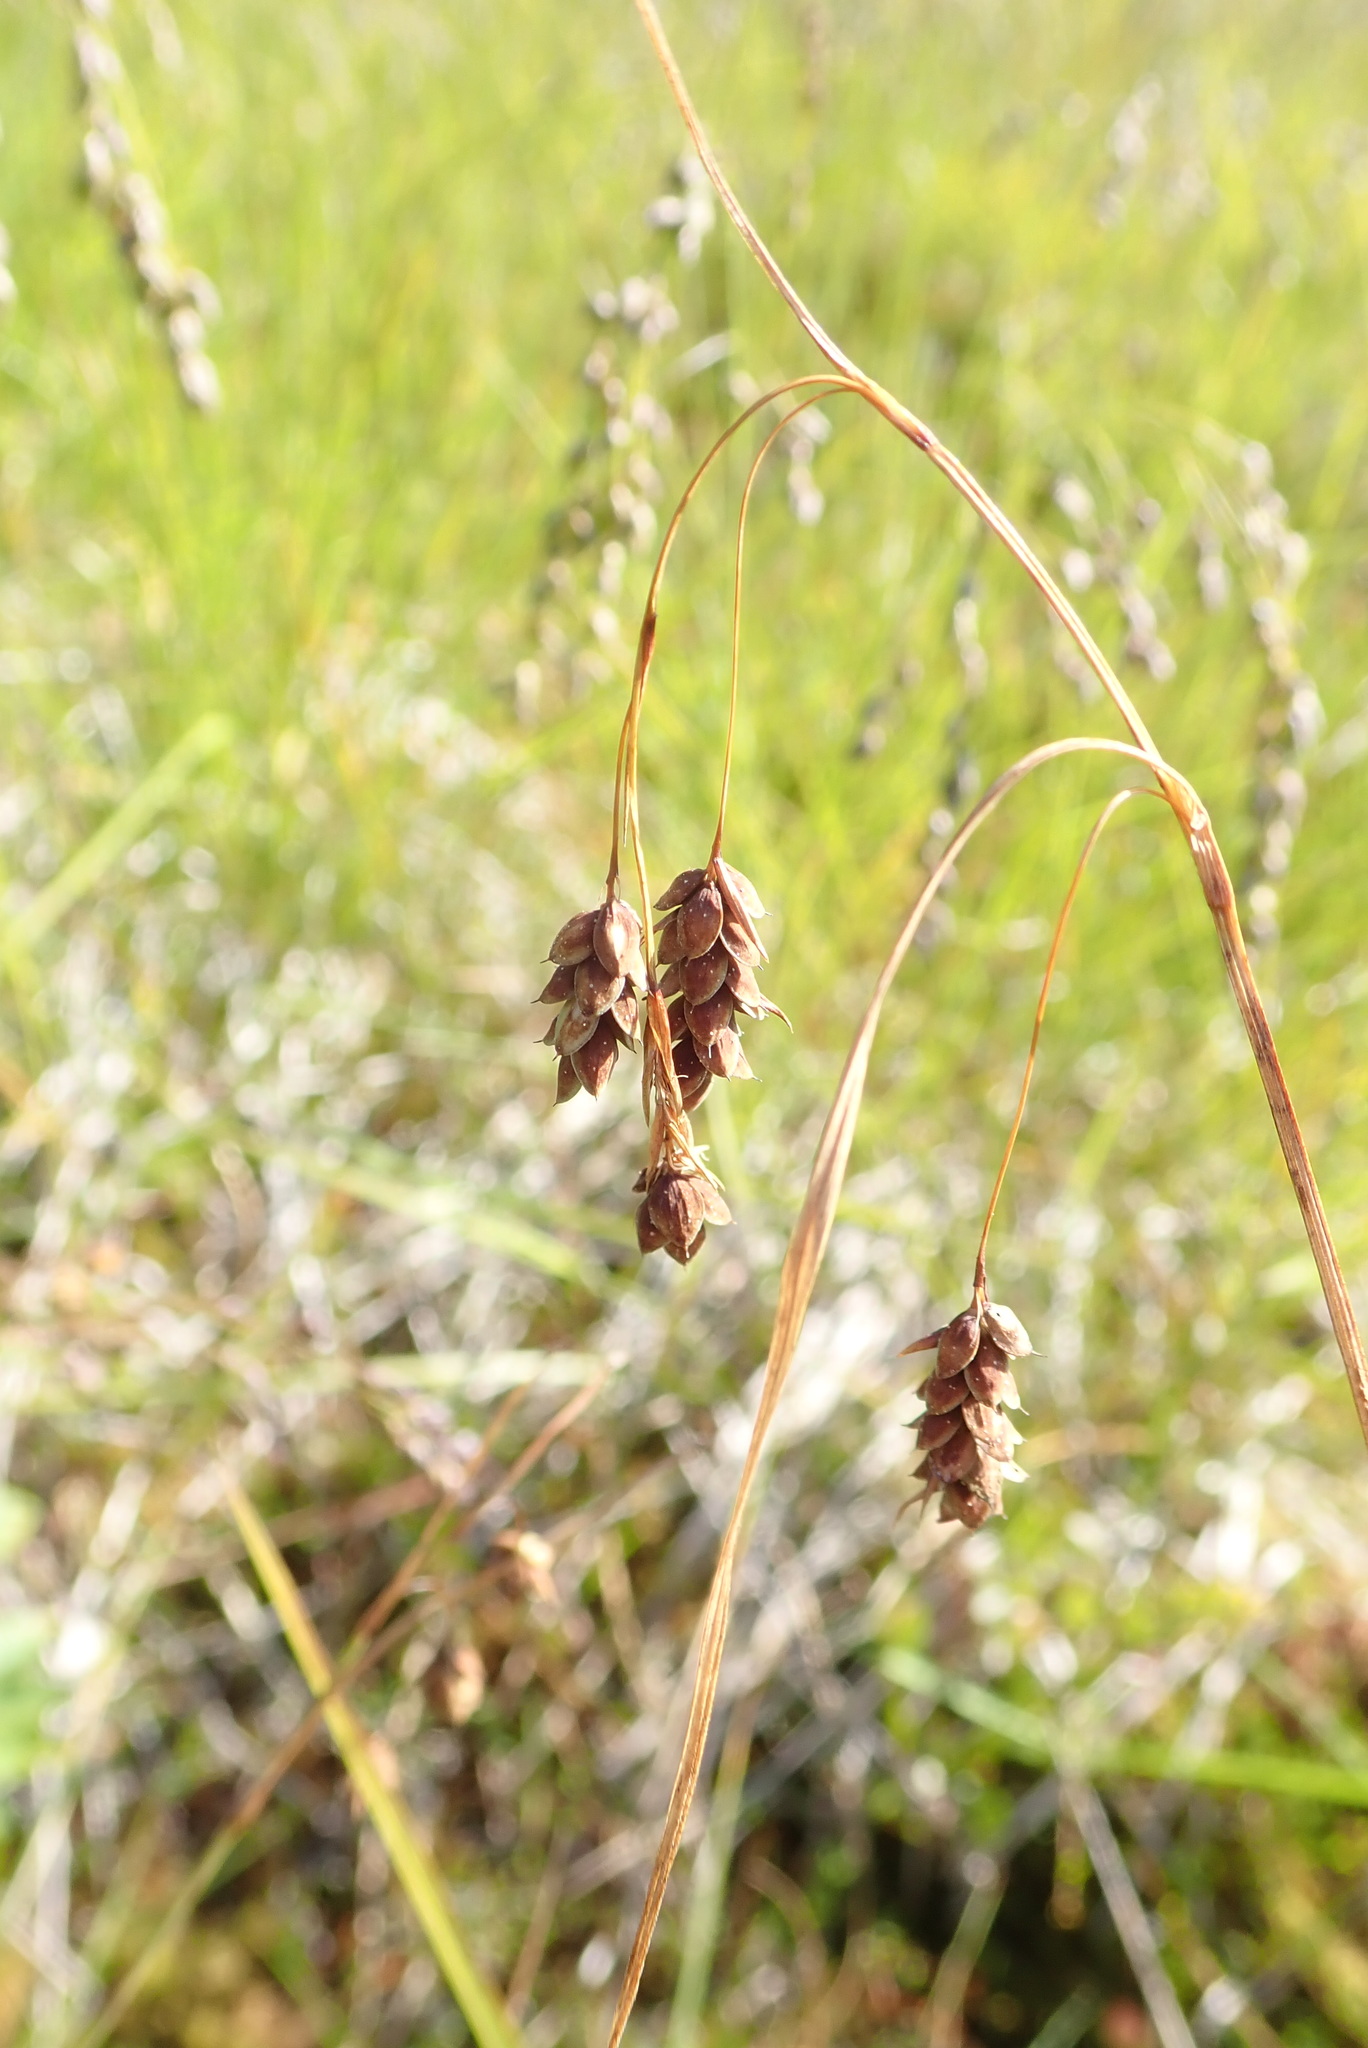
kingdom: Plantae
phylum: Tracheophyta
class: Liliopsida
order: Poales
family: Cyperaceae
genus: Carex
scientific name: Carex magellanica
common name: Bog sedge
